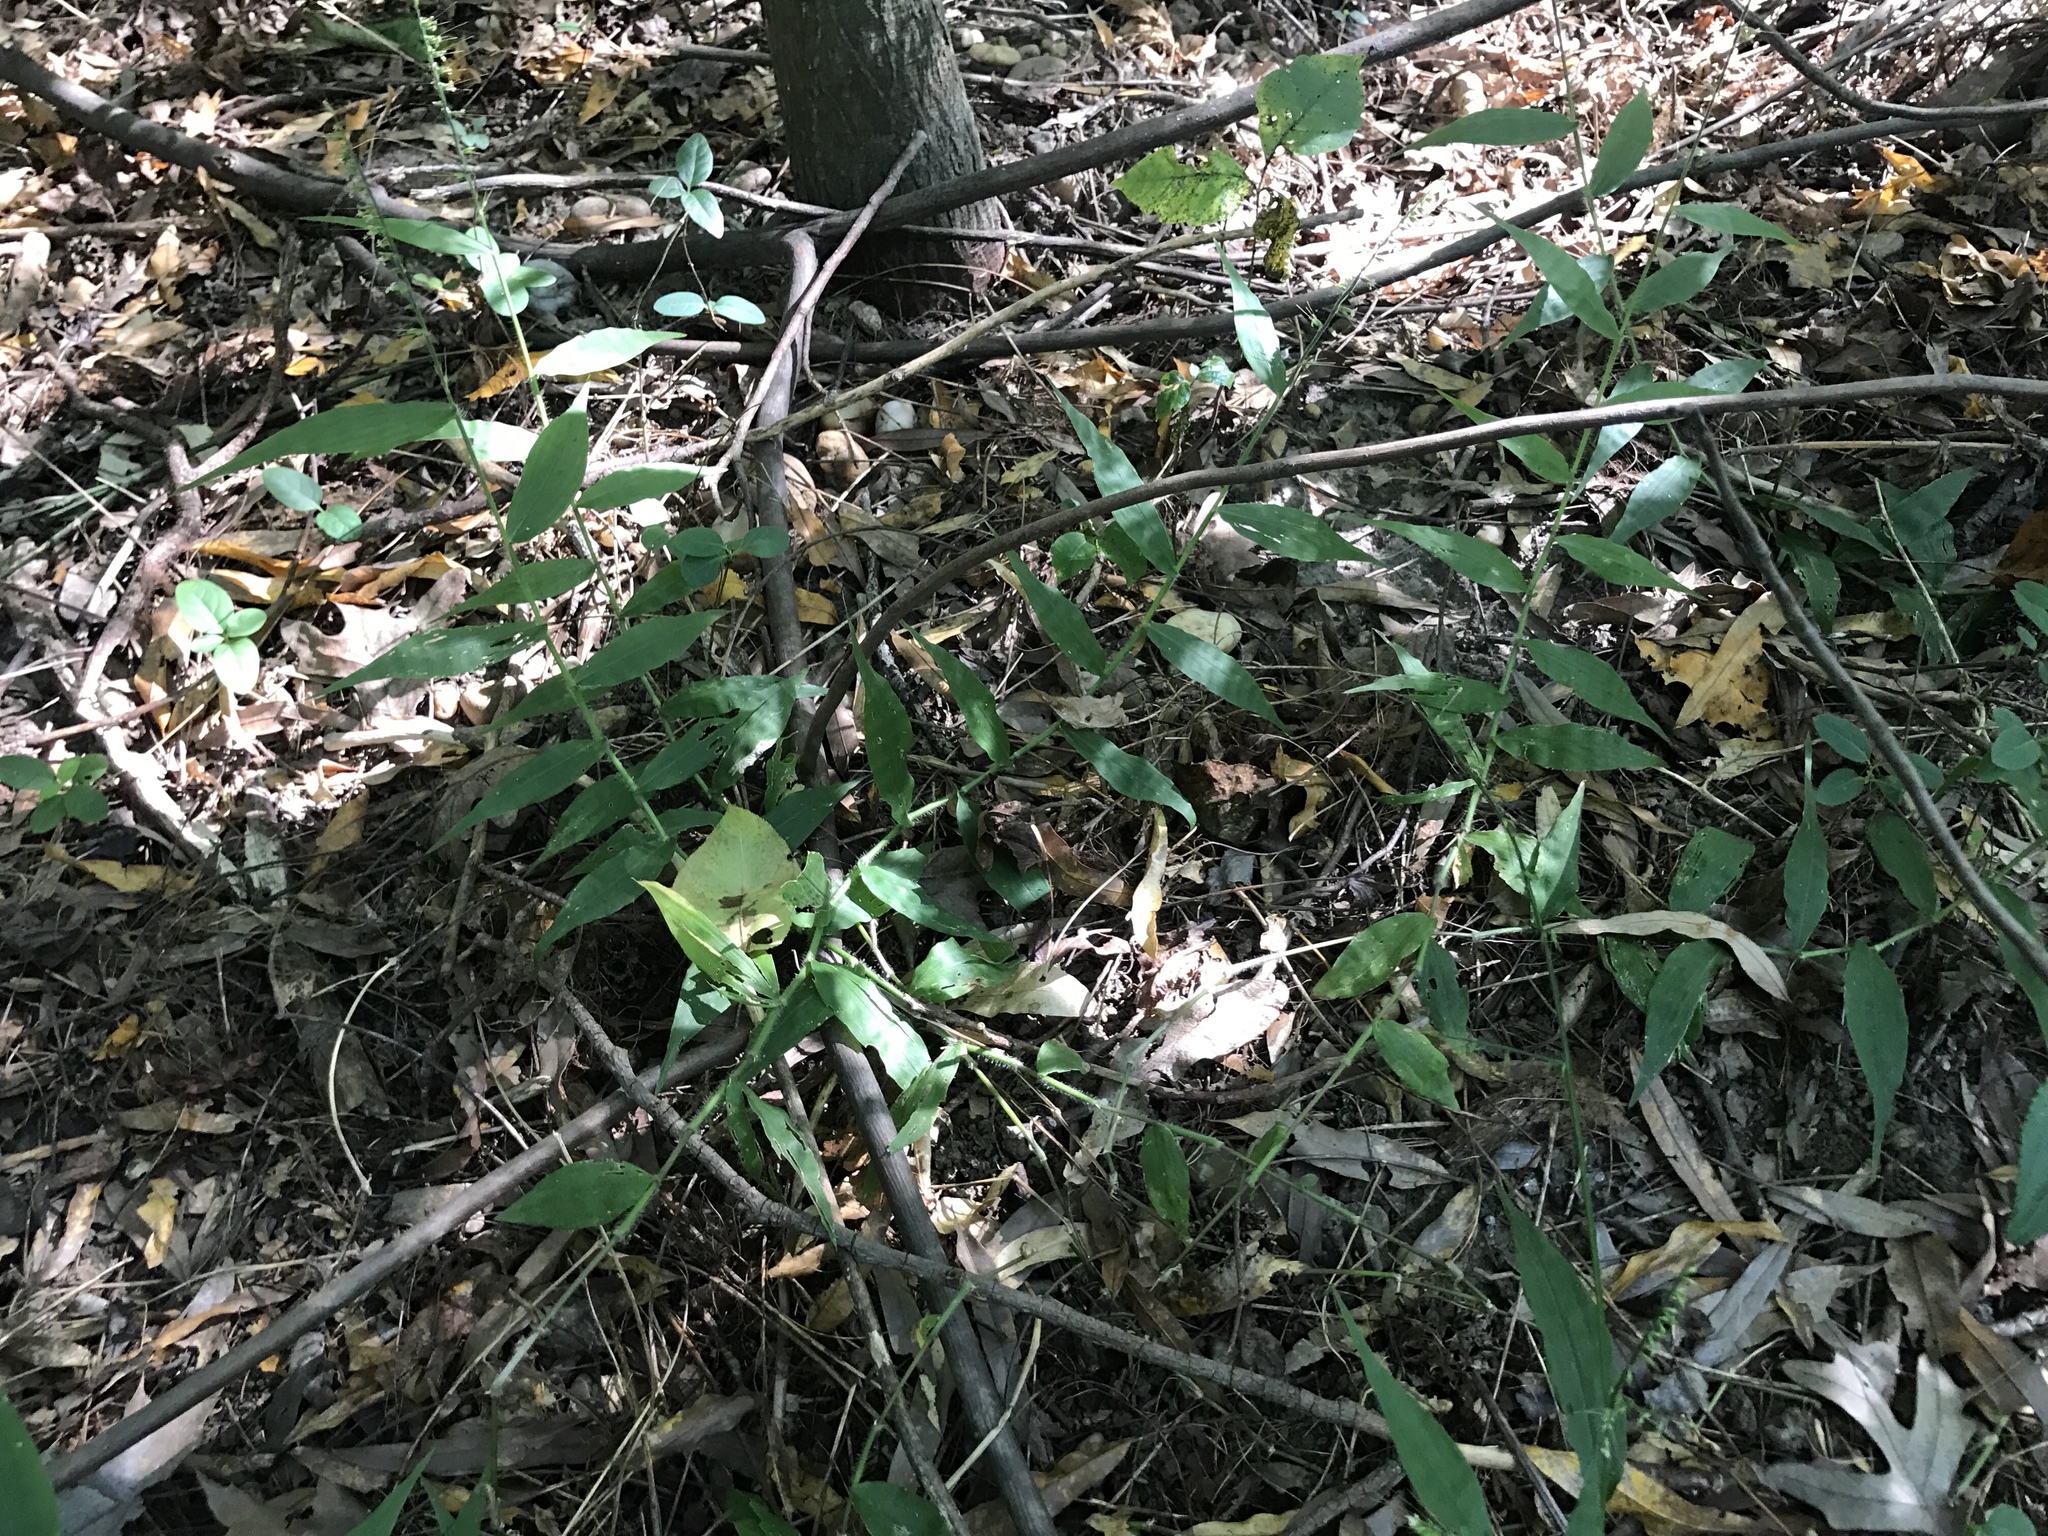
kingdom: Plantae
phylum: Tracheophyta
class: Liliopsida
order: Poales
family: Poaceae
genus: Oplismenus
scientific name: Oplismenus undulatifolius
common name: Wavyleaf basketgrass
